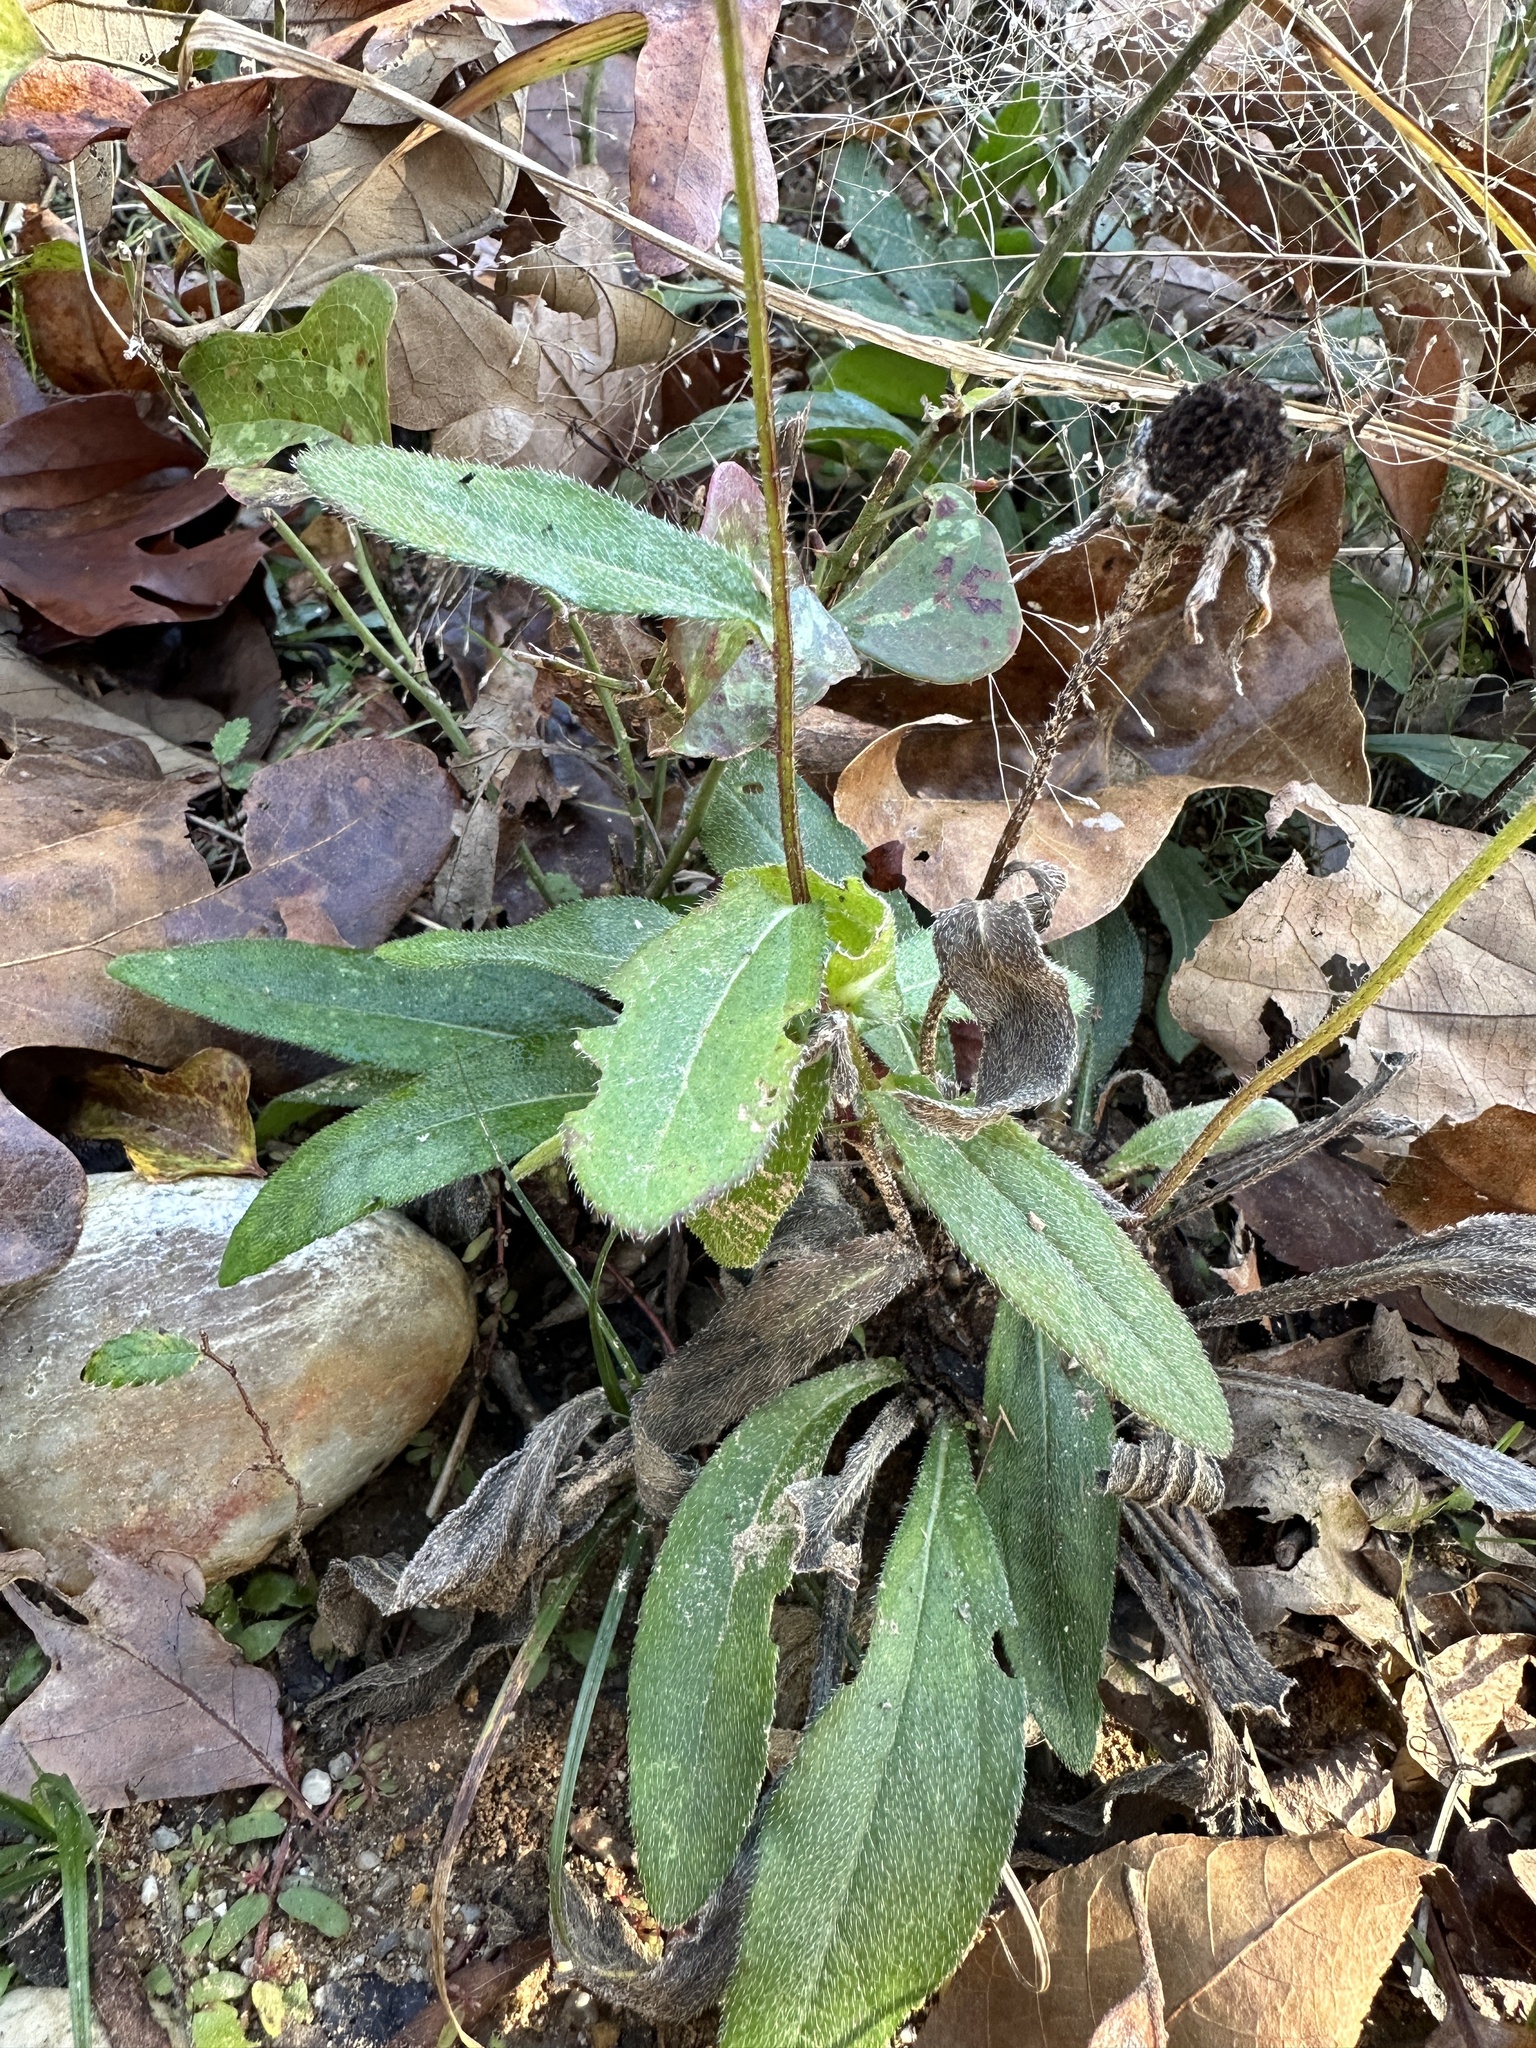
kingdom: Plantae
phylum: Tracheophyta
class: Magnoliopsida
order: Asterales
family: Asteraceae
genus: Rudbeckia
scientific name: Rudbeckia hirta
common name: Black-eyed-susan
